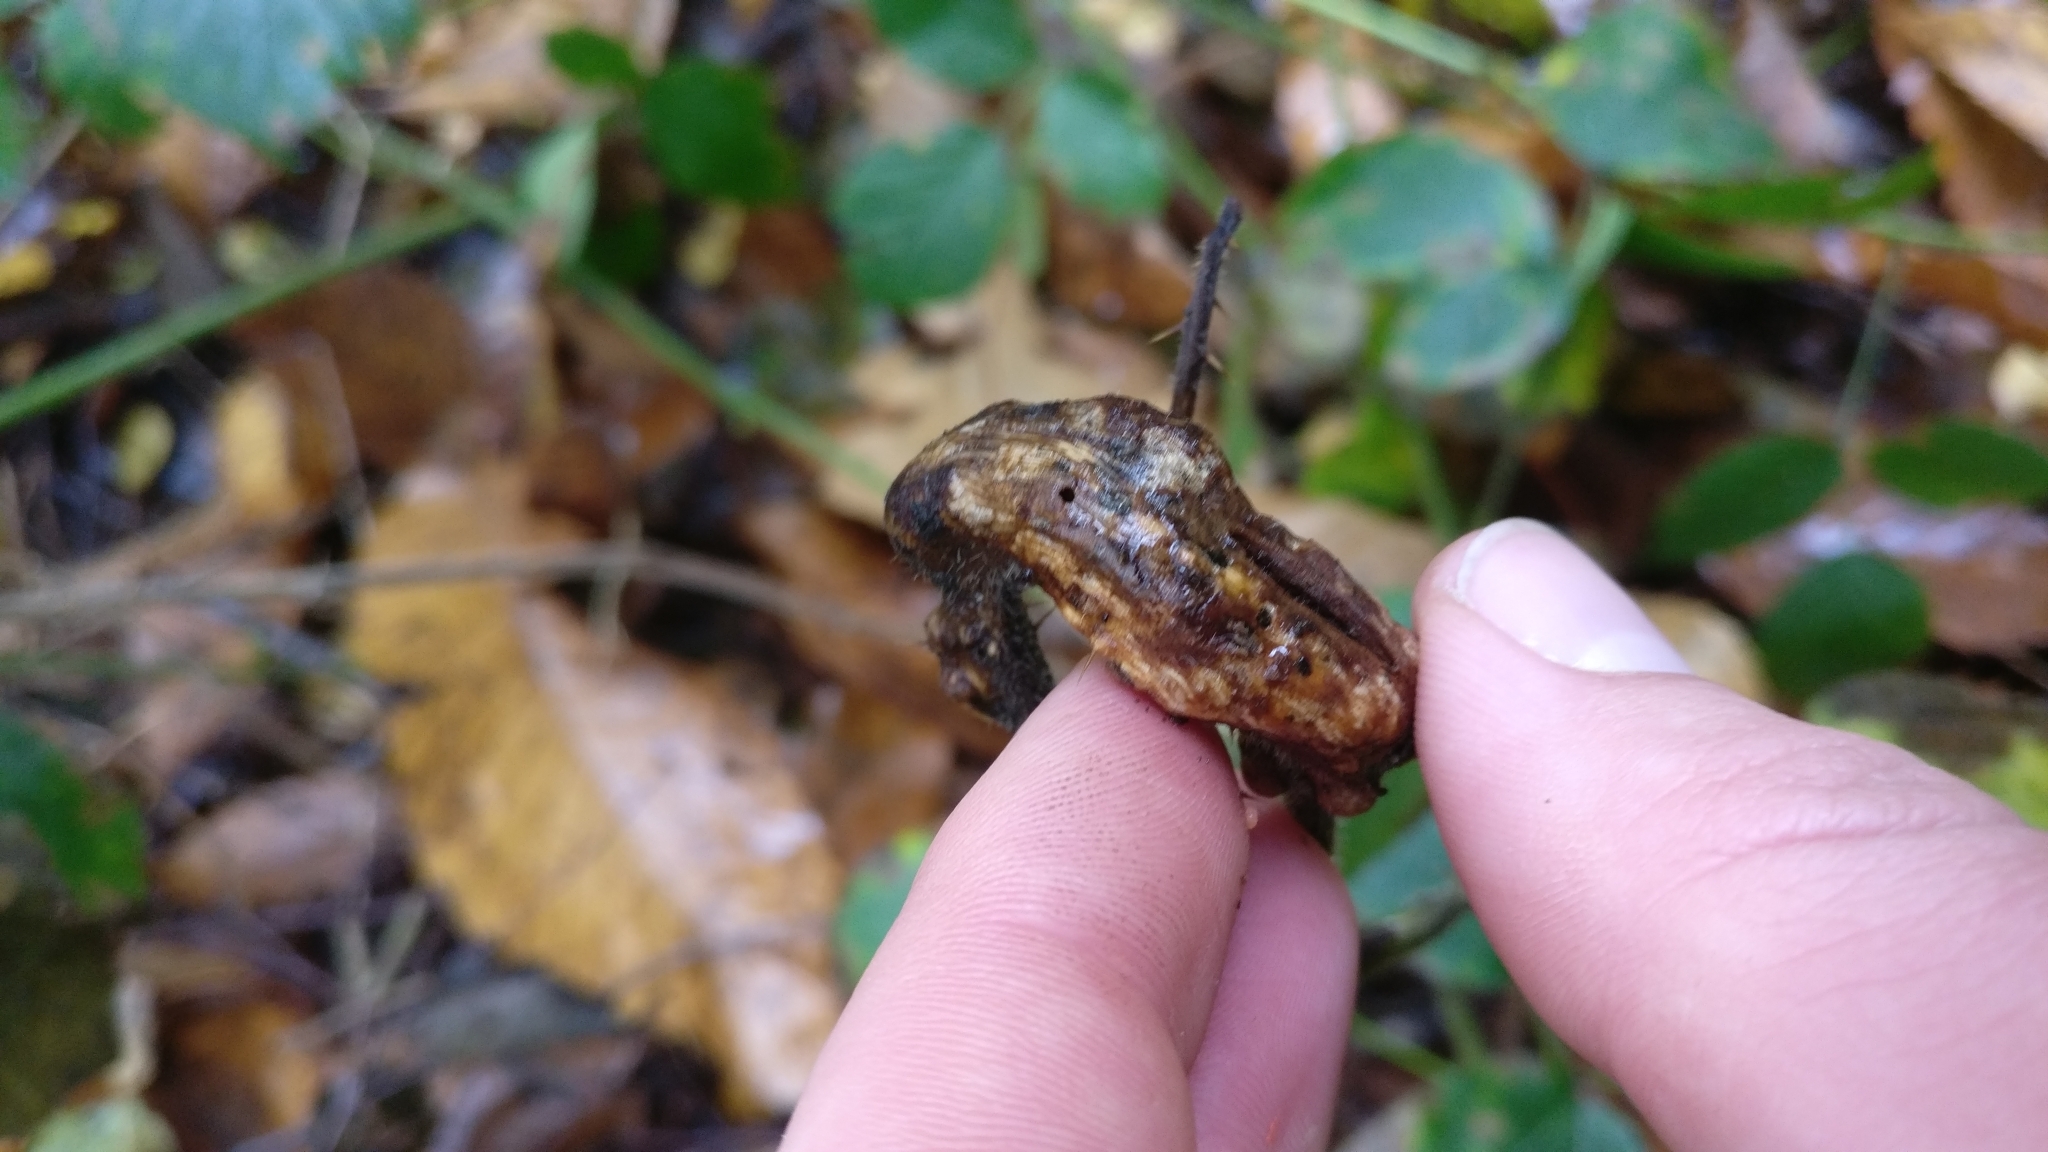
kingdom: Animalia
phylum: Arthropoda
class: Insecta
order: Hymenoptera
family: Cynipidae
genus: Diastrophus
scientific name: Diastrophus rubi
